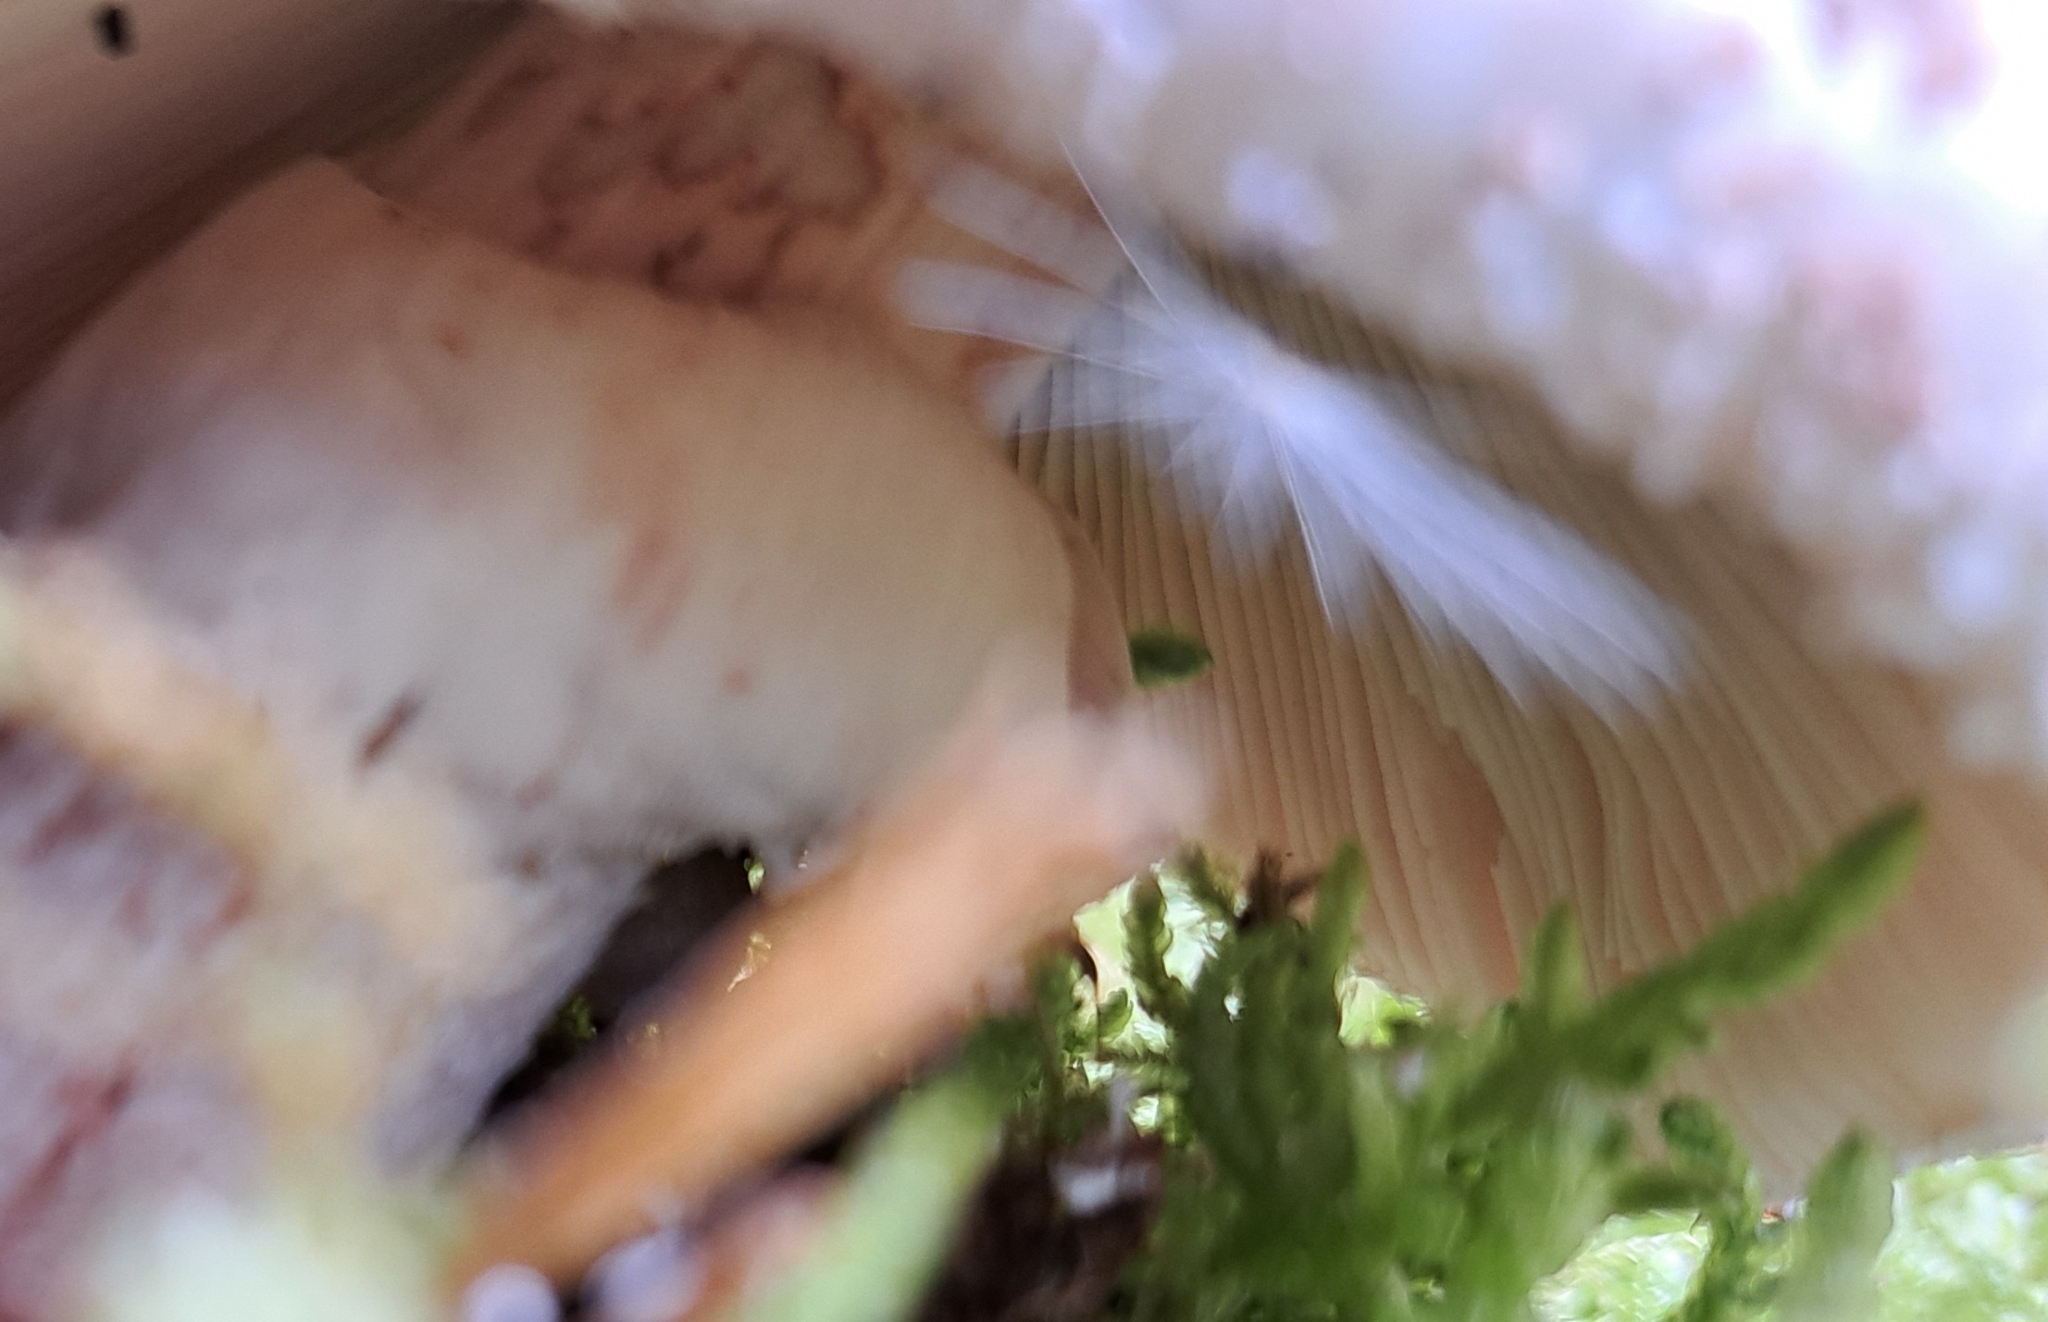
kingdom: Fungi
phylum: Basidiomycota
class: Agaricomycetes
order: Agaricales
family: Amanitaceae
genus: Amanita
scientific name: Amanita rubescens
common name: Blusher
